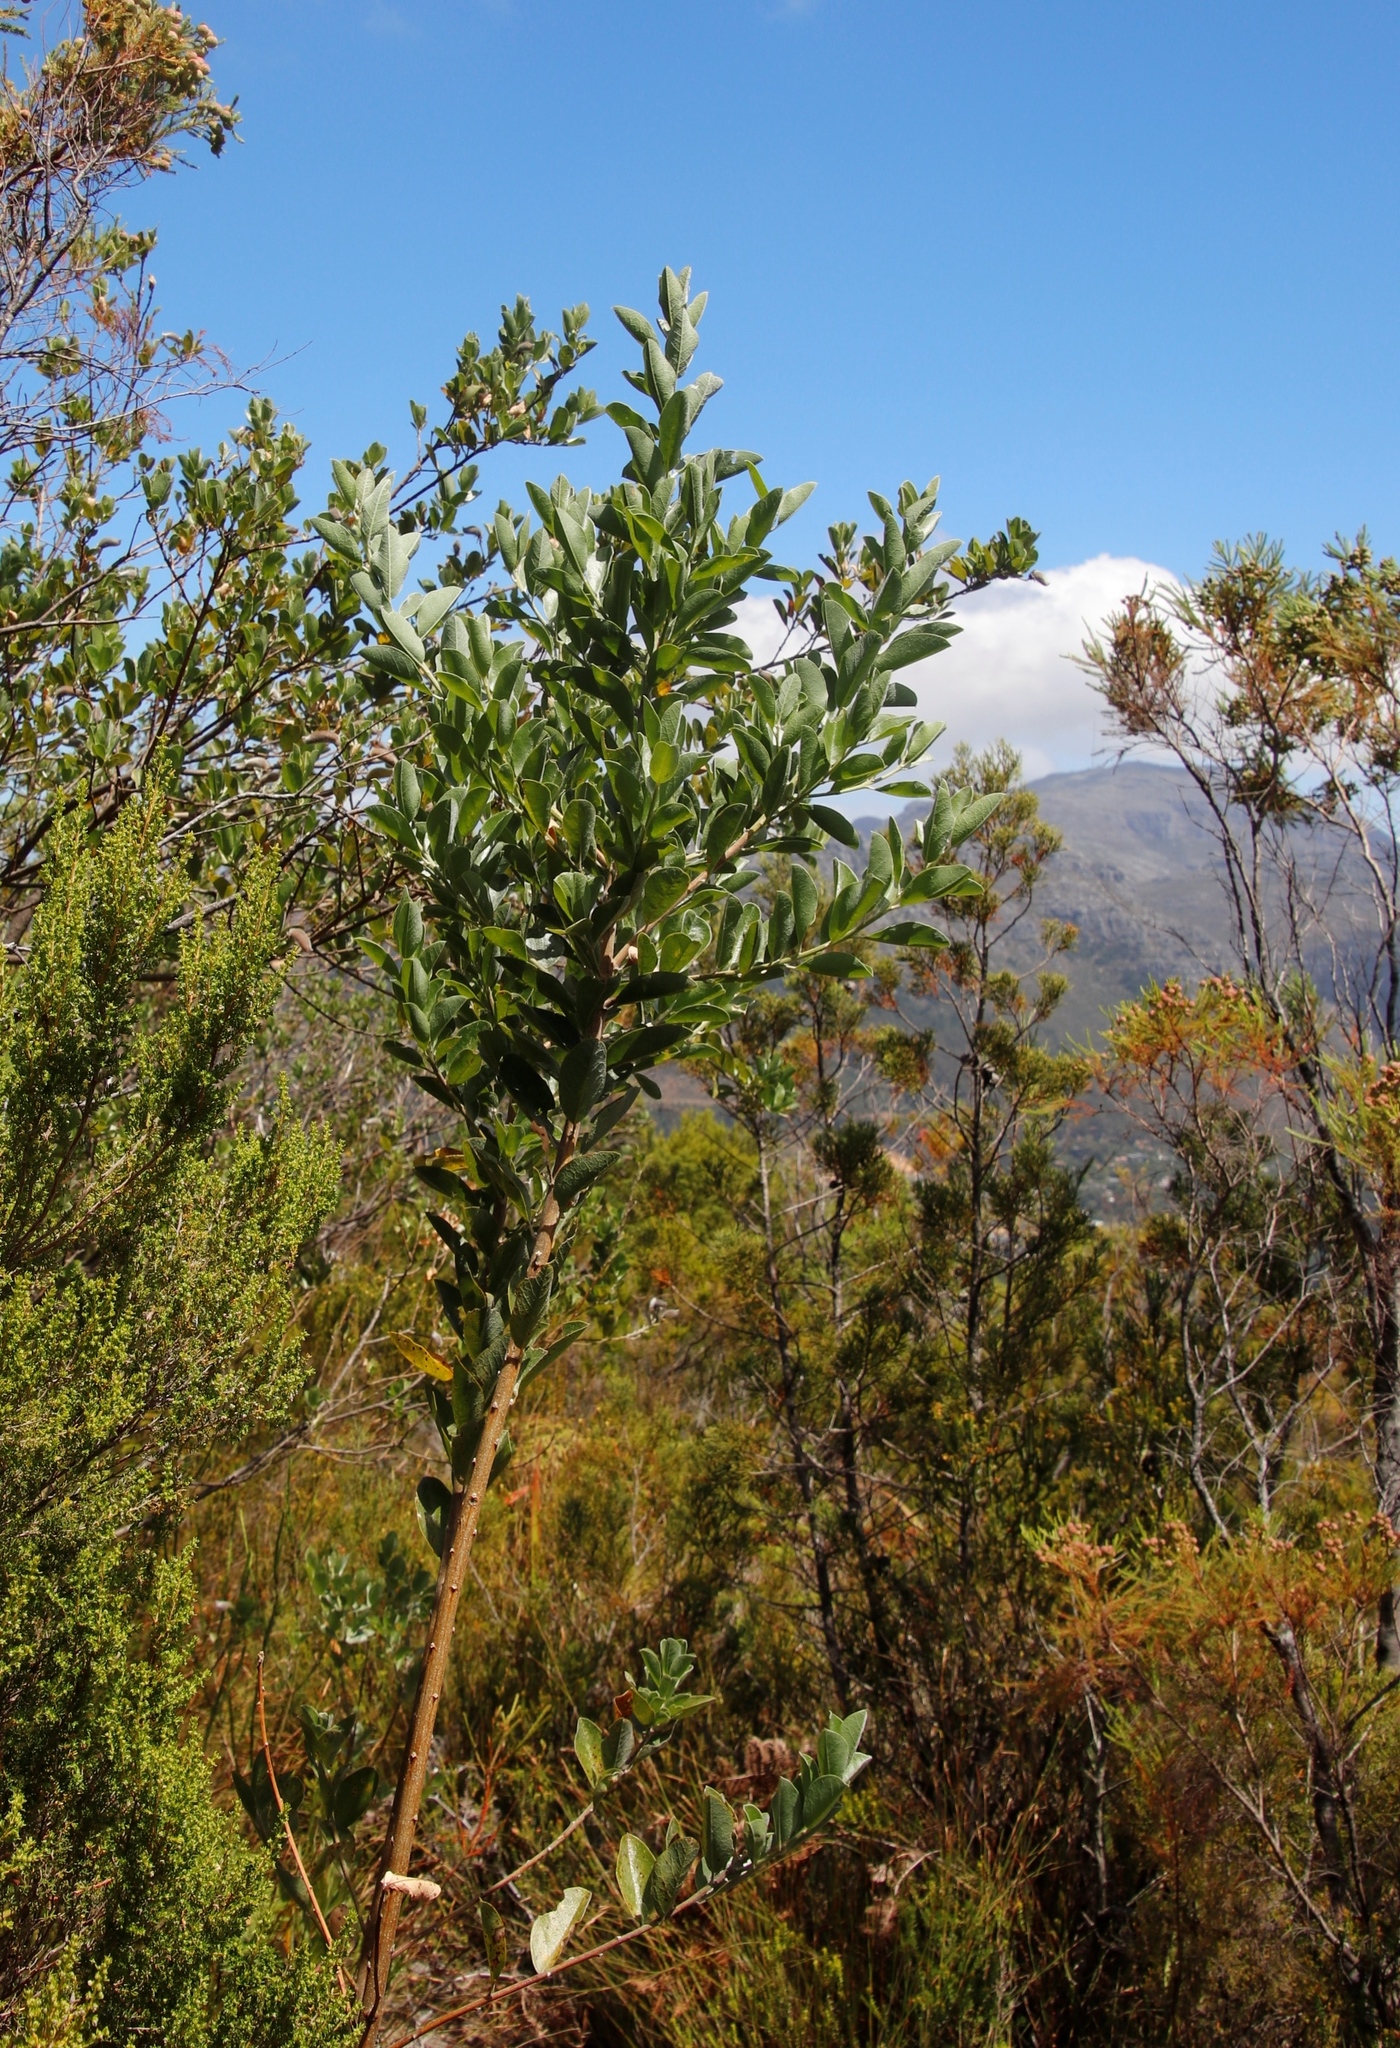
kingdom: Plantae
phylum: Tracheophyta
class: Magnoliopsida
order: Fabales
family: Fabaceae
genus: Podalyria
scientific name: Podalyria calyptrata
